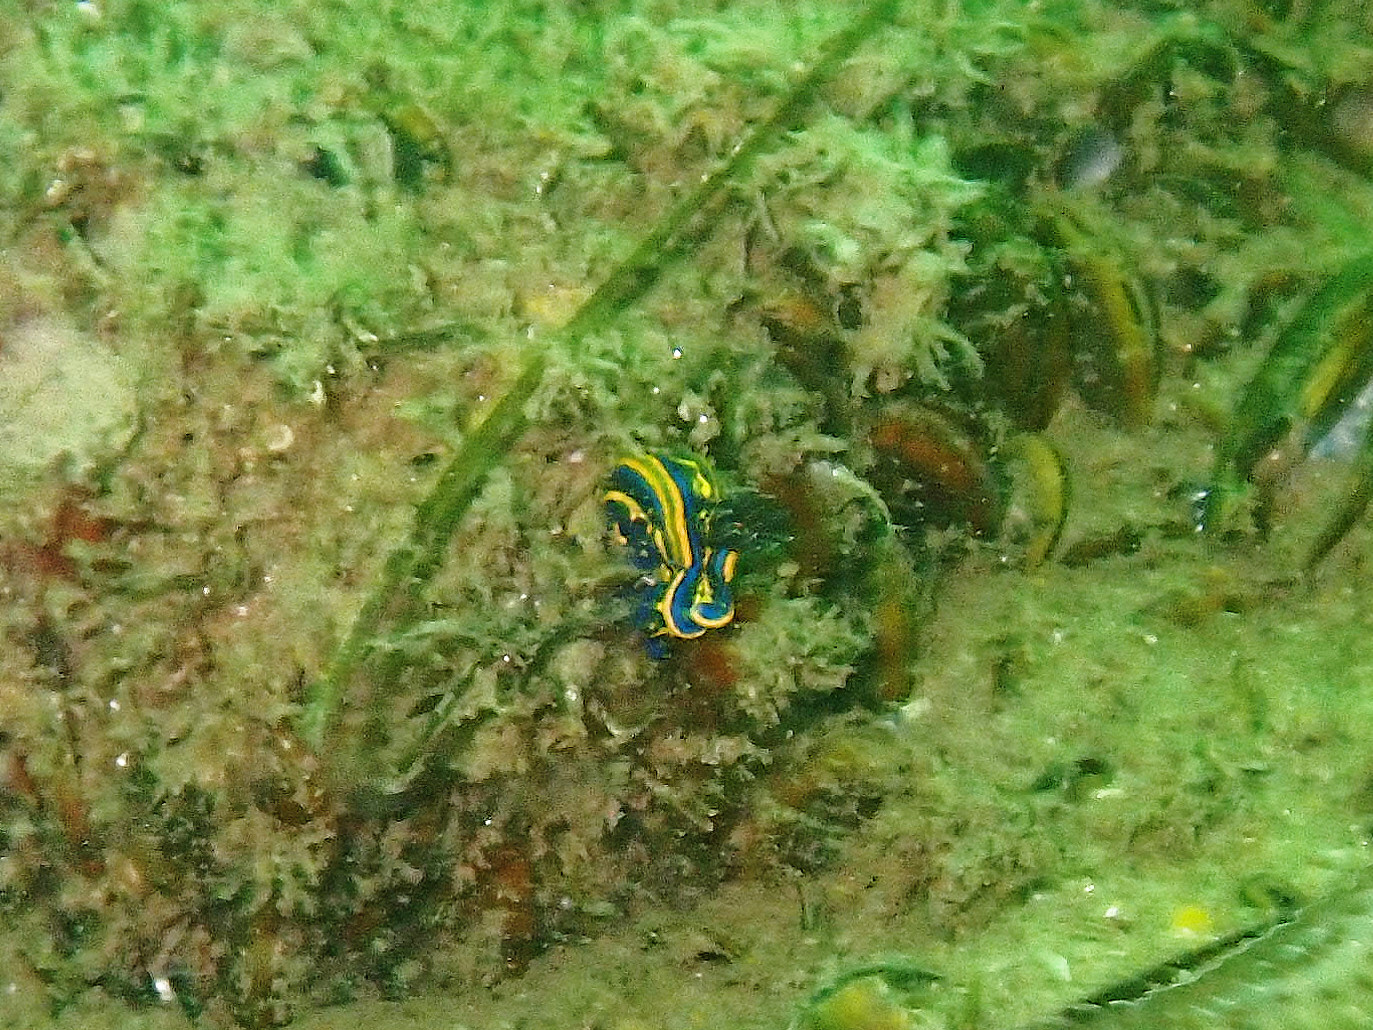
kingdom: Animalia
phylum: Mollusca
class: Gastropoda
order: Nudibranchia
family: Chromodorididae
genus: Felimare
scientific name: Felimare cantabrica
